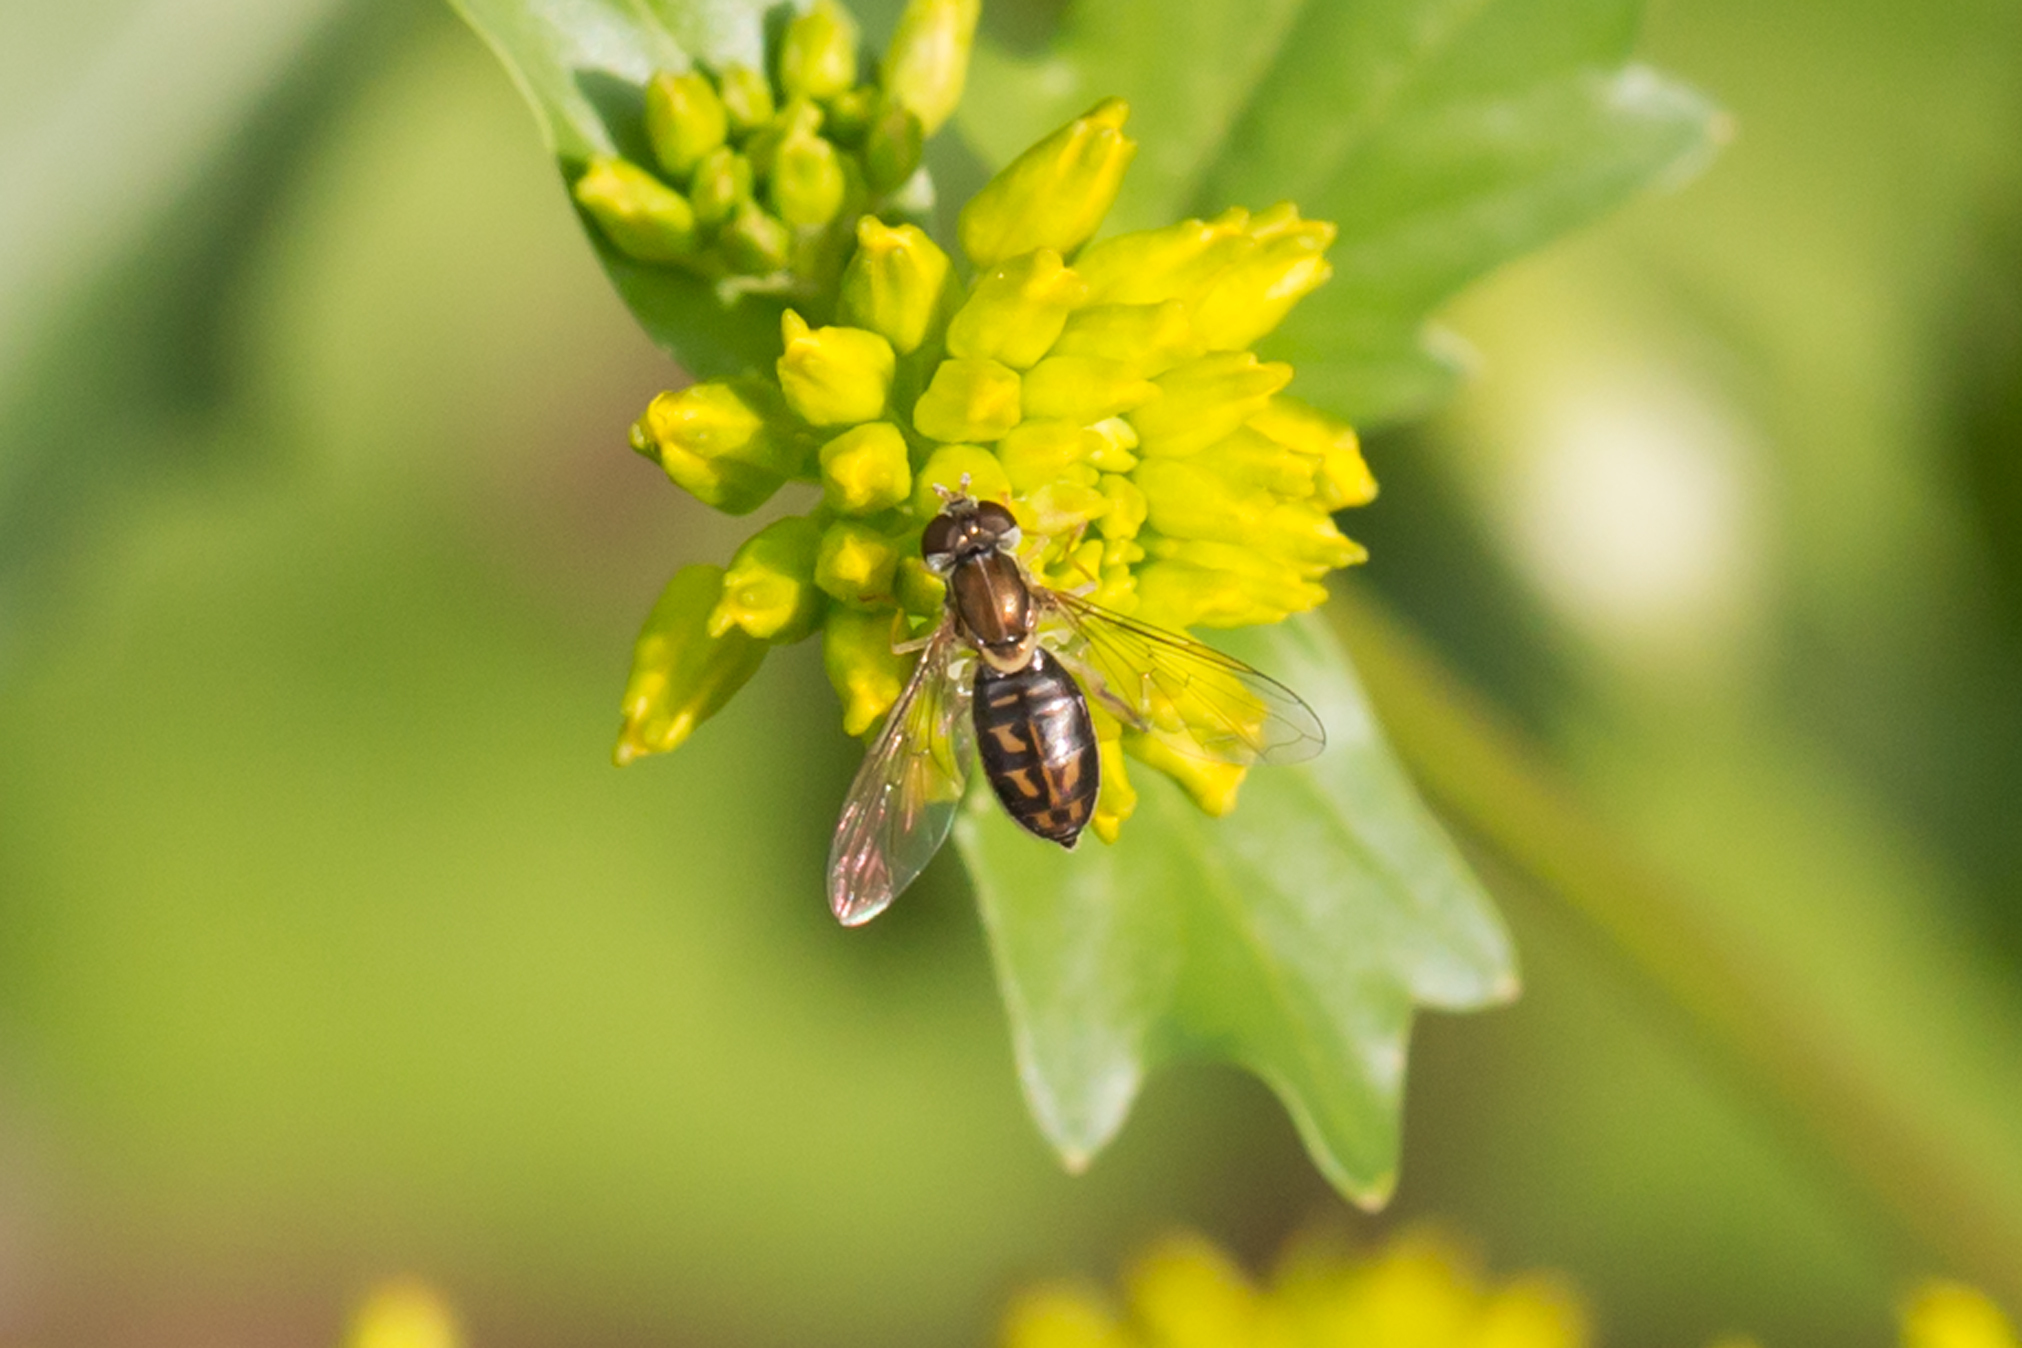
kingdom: Animalia
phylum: Arthropoda
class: Insecta
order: Diptera
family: Syrphidae
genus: Toxomerus
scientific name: Toxomerus marginatus
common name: Syrphid fly
